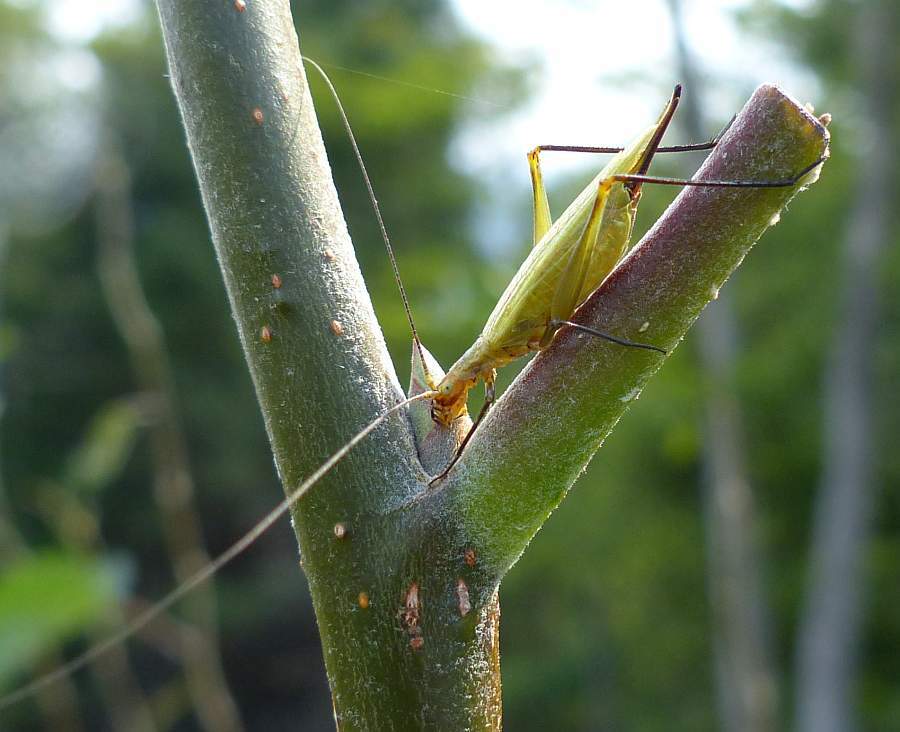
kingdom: Animalia
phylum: Arthropoda
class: Insecta
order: Orthoptera
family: Gryllidae
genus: Oecanthus
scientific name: Oecanthus nigricornis
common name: Black-horned tree cricket
